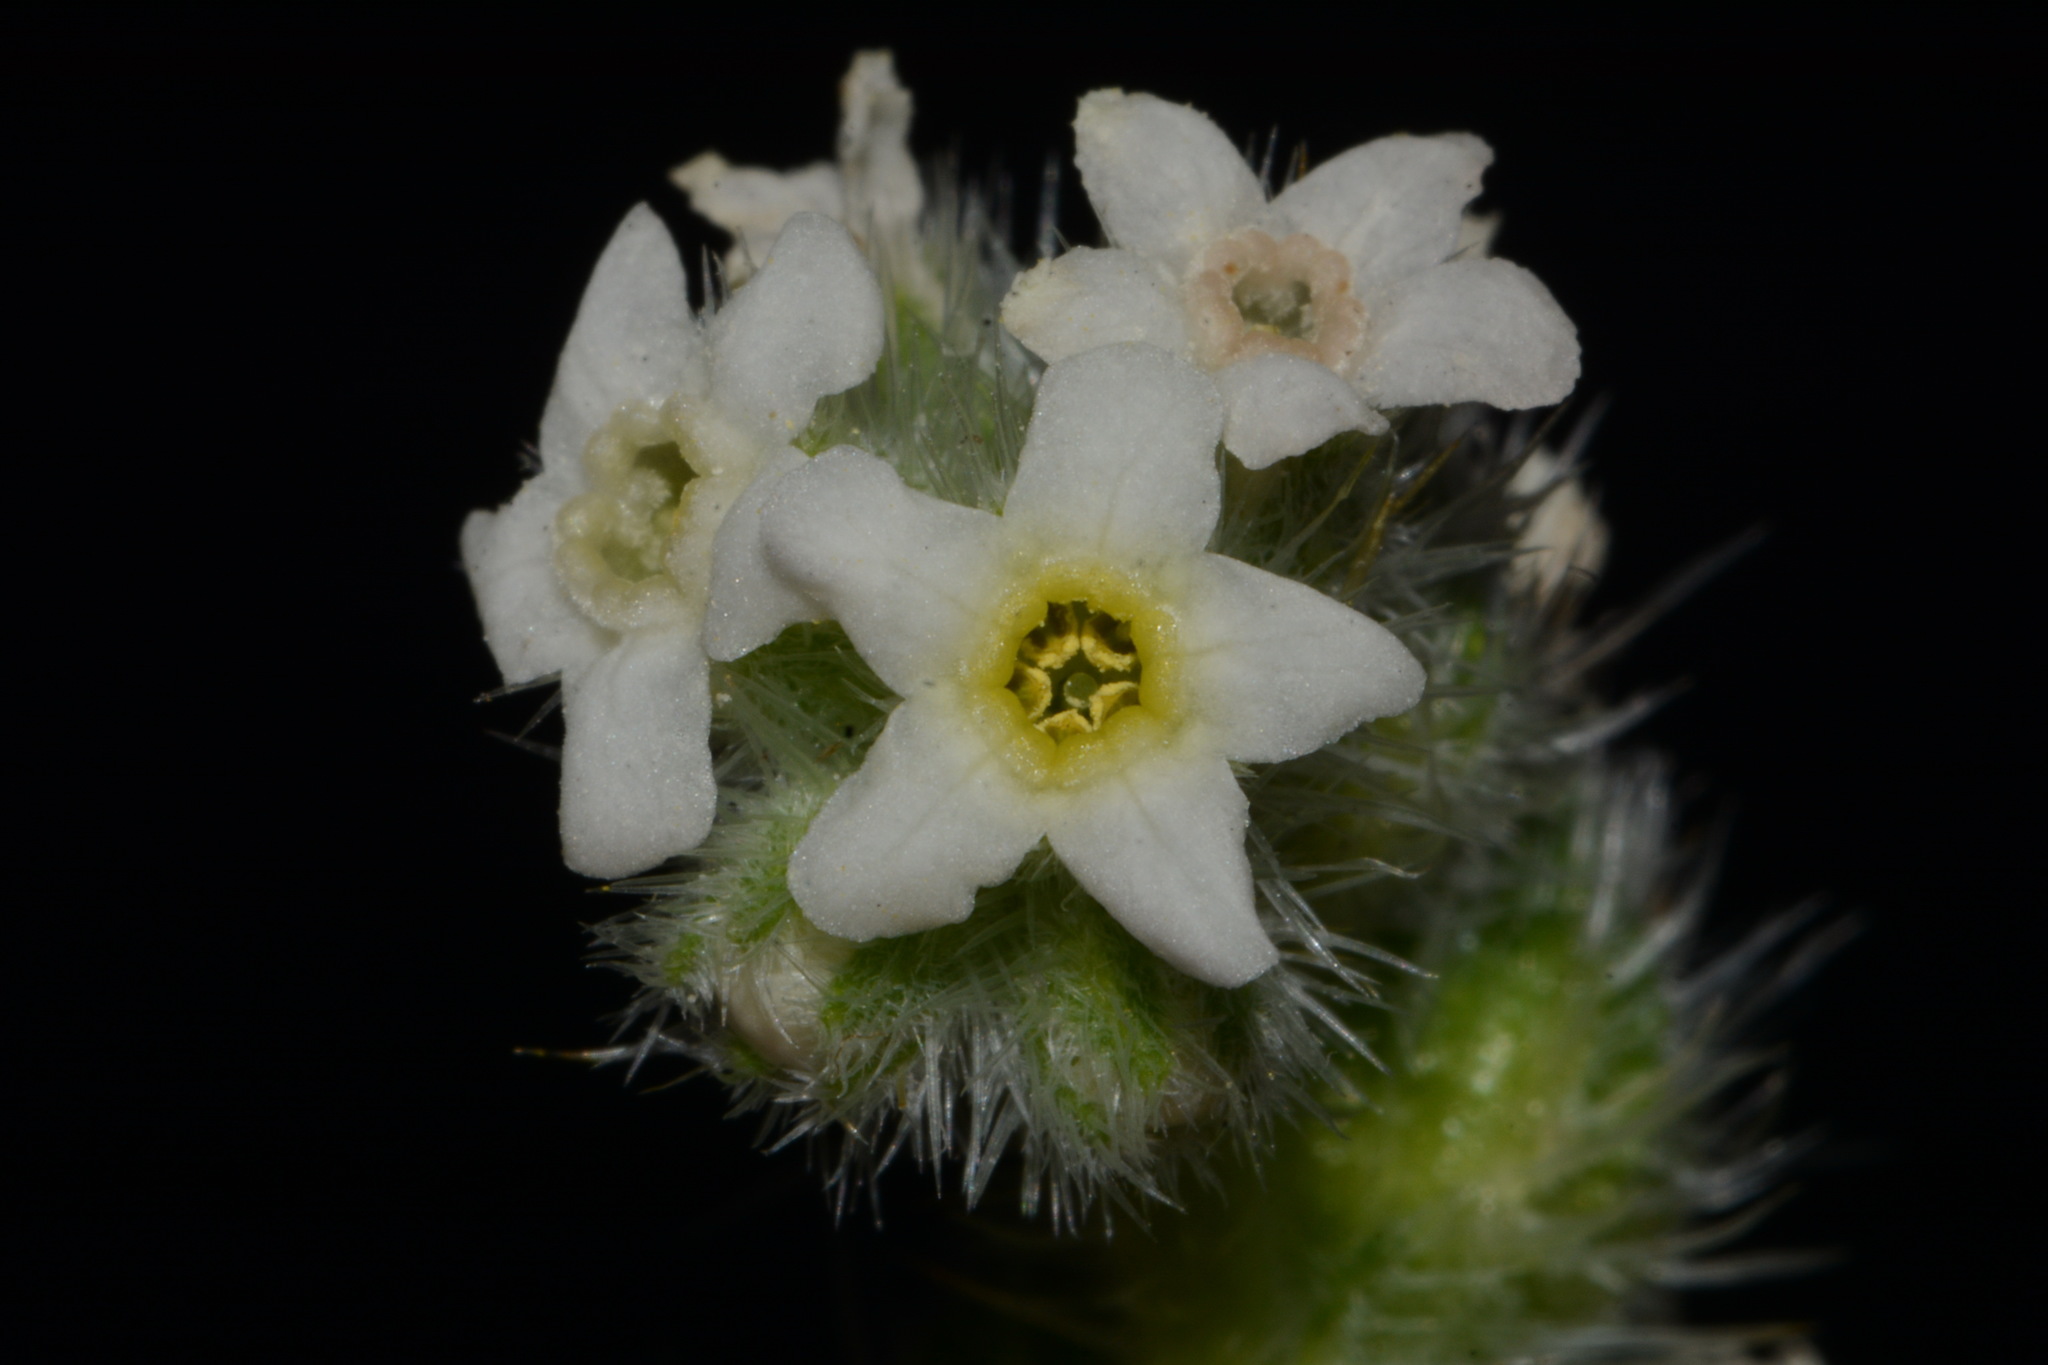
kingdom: Plantae
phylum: Tracheophyta
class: Magnoliopsida
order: Boraginales
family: Boraginaceae
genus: Oreocarya
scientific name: Oreocarya setosissima
